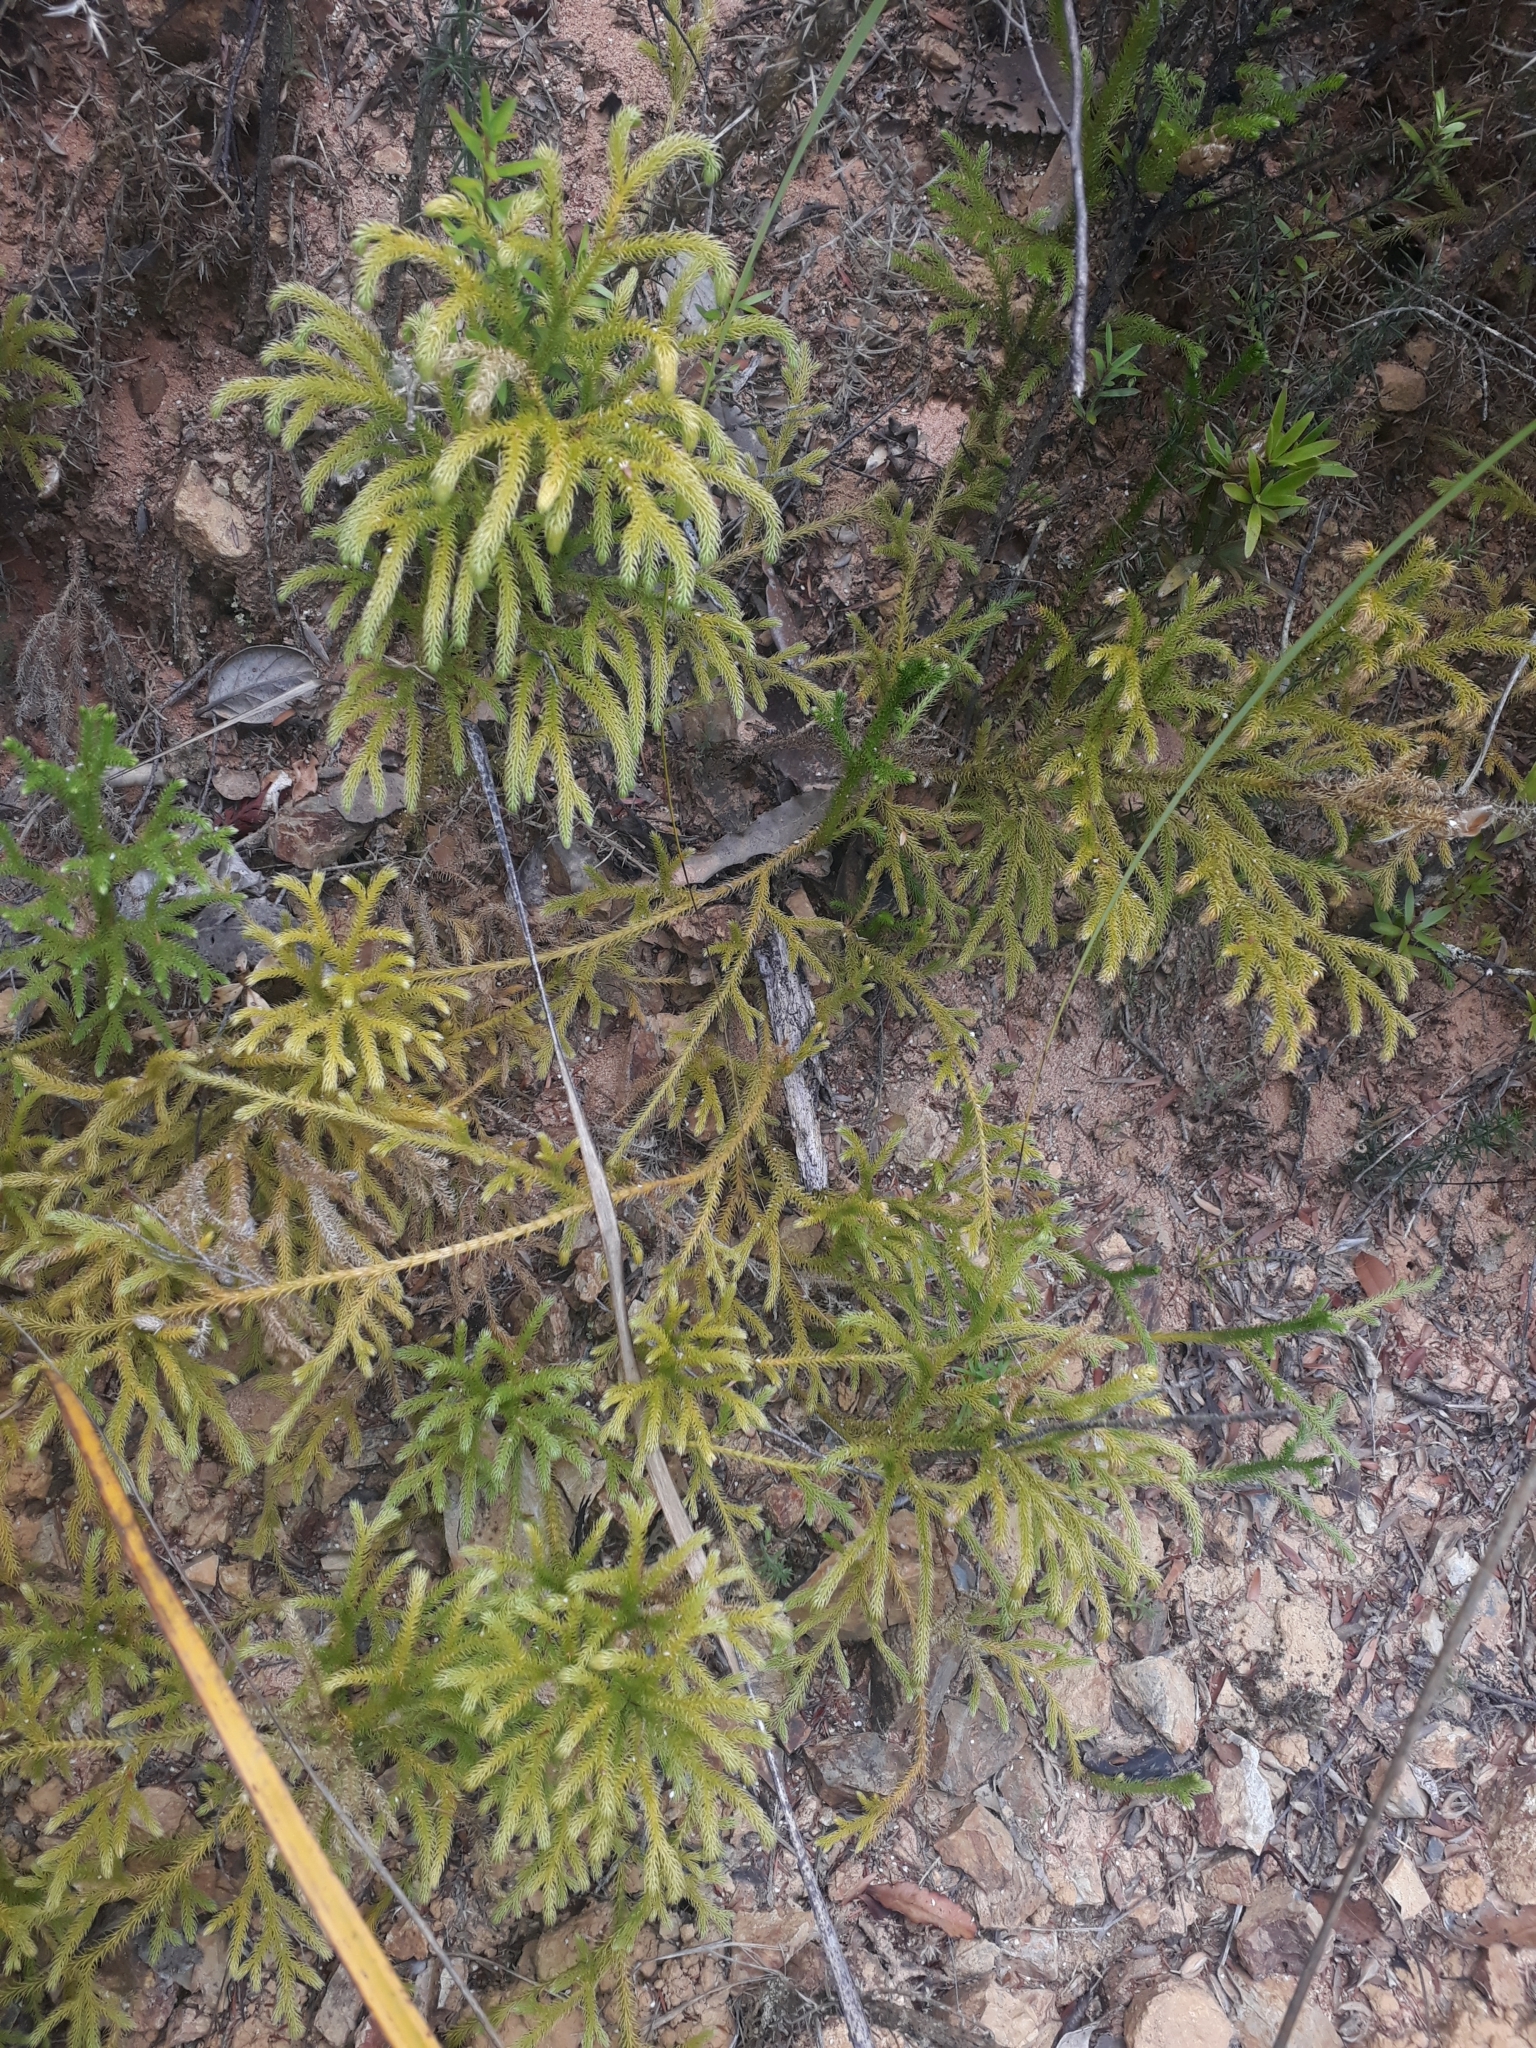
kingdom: Plantae
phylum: Tracheophyta
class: Lycopodiopsida
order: Lycopodiales
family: Lycopodiaceae
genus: Palhinhaea
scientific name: Palhinhaea cernua
